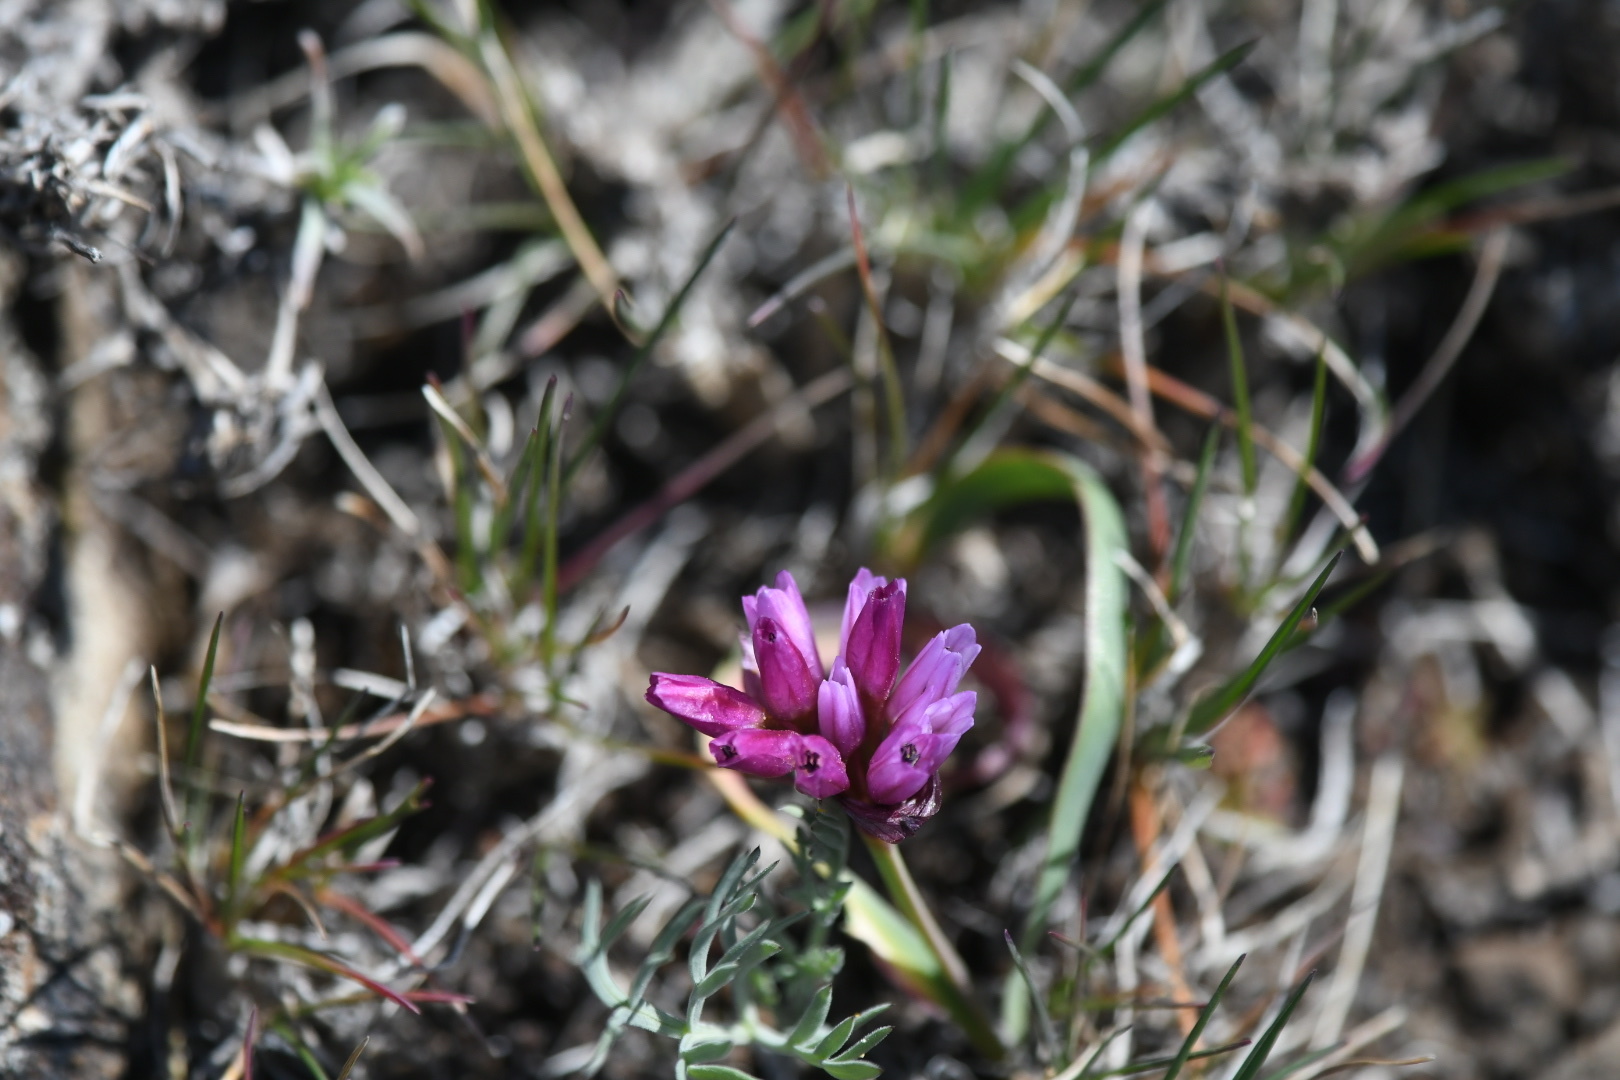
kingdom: Plantae
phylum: Tracheophyta
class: Liliopsida
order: Asparagales
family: Amaryllidaceae
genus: Allium
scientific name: Allium scilloides
